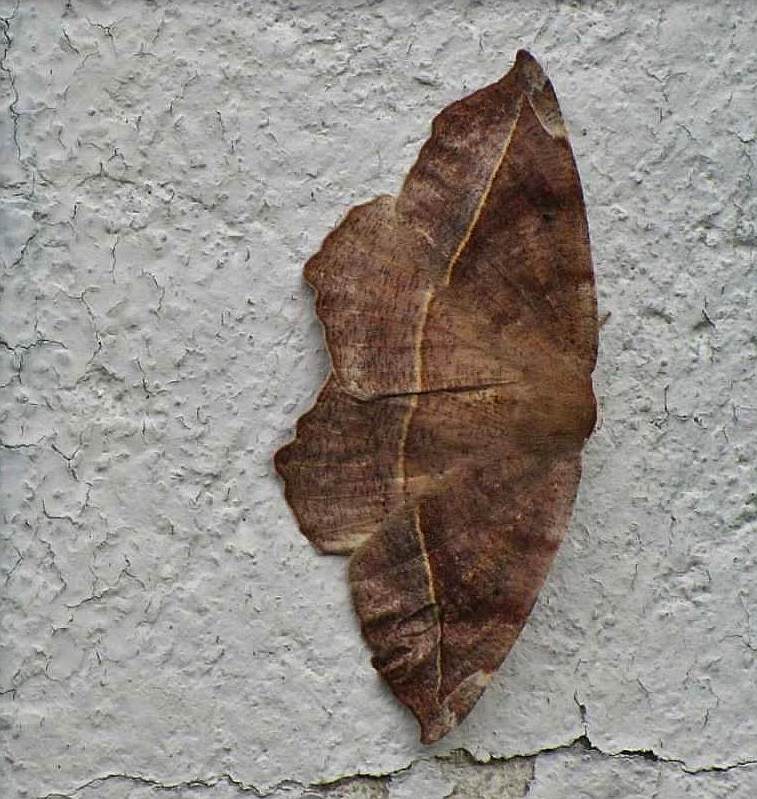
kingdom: Animalia
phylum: Arthropoda
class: Insecta
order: Lepidoptera
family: Geometridae
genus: Eutrapela
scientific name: Eutrapela clemataria
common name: Curved-toothed geometer
